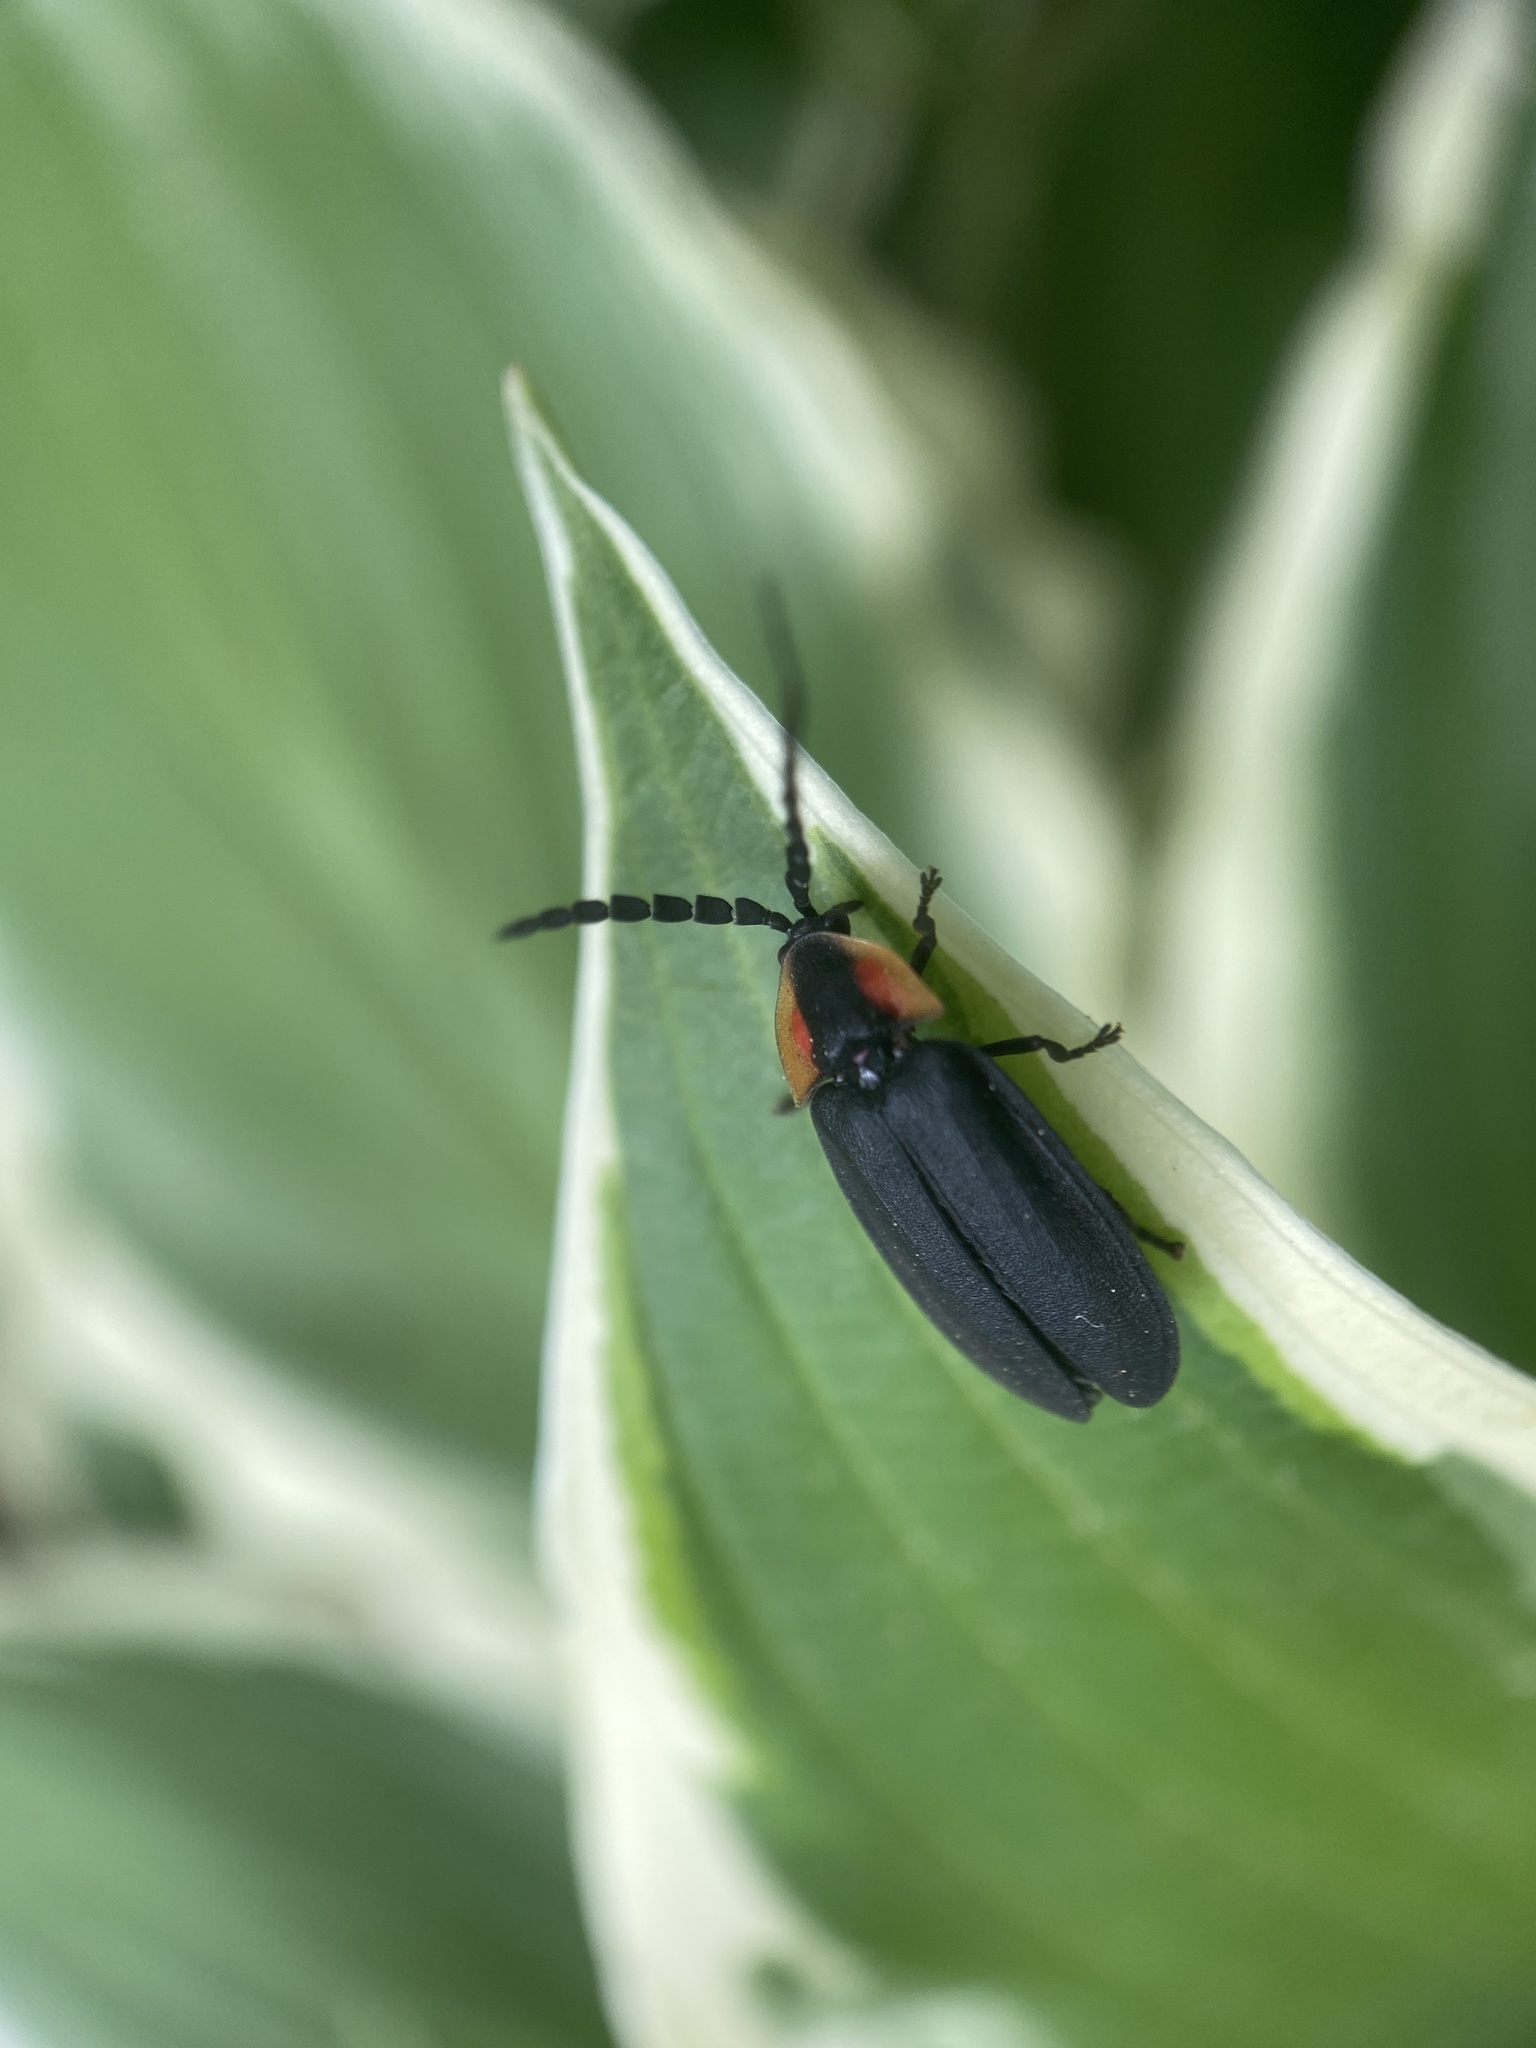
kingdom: Animalia
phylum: Arthropoda
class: Insecta
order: Coleoptera
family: Lampyridae
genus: Lucidota
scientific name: Lucidota atra
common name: Black firefly
